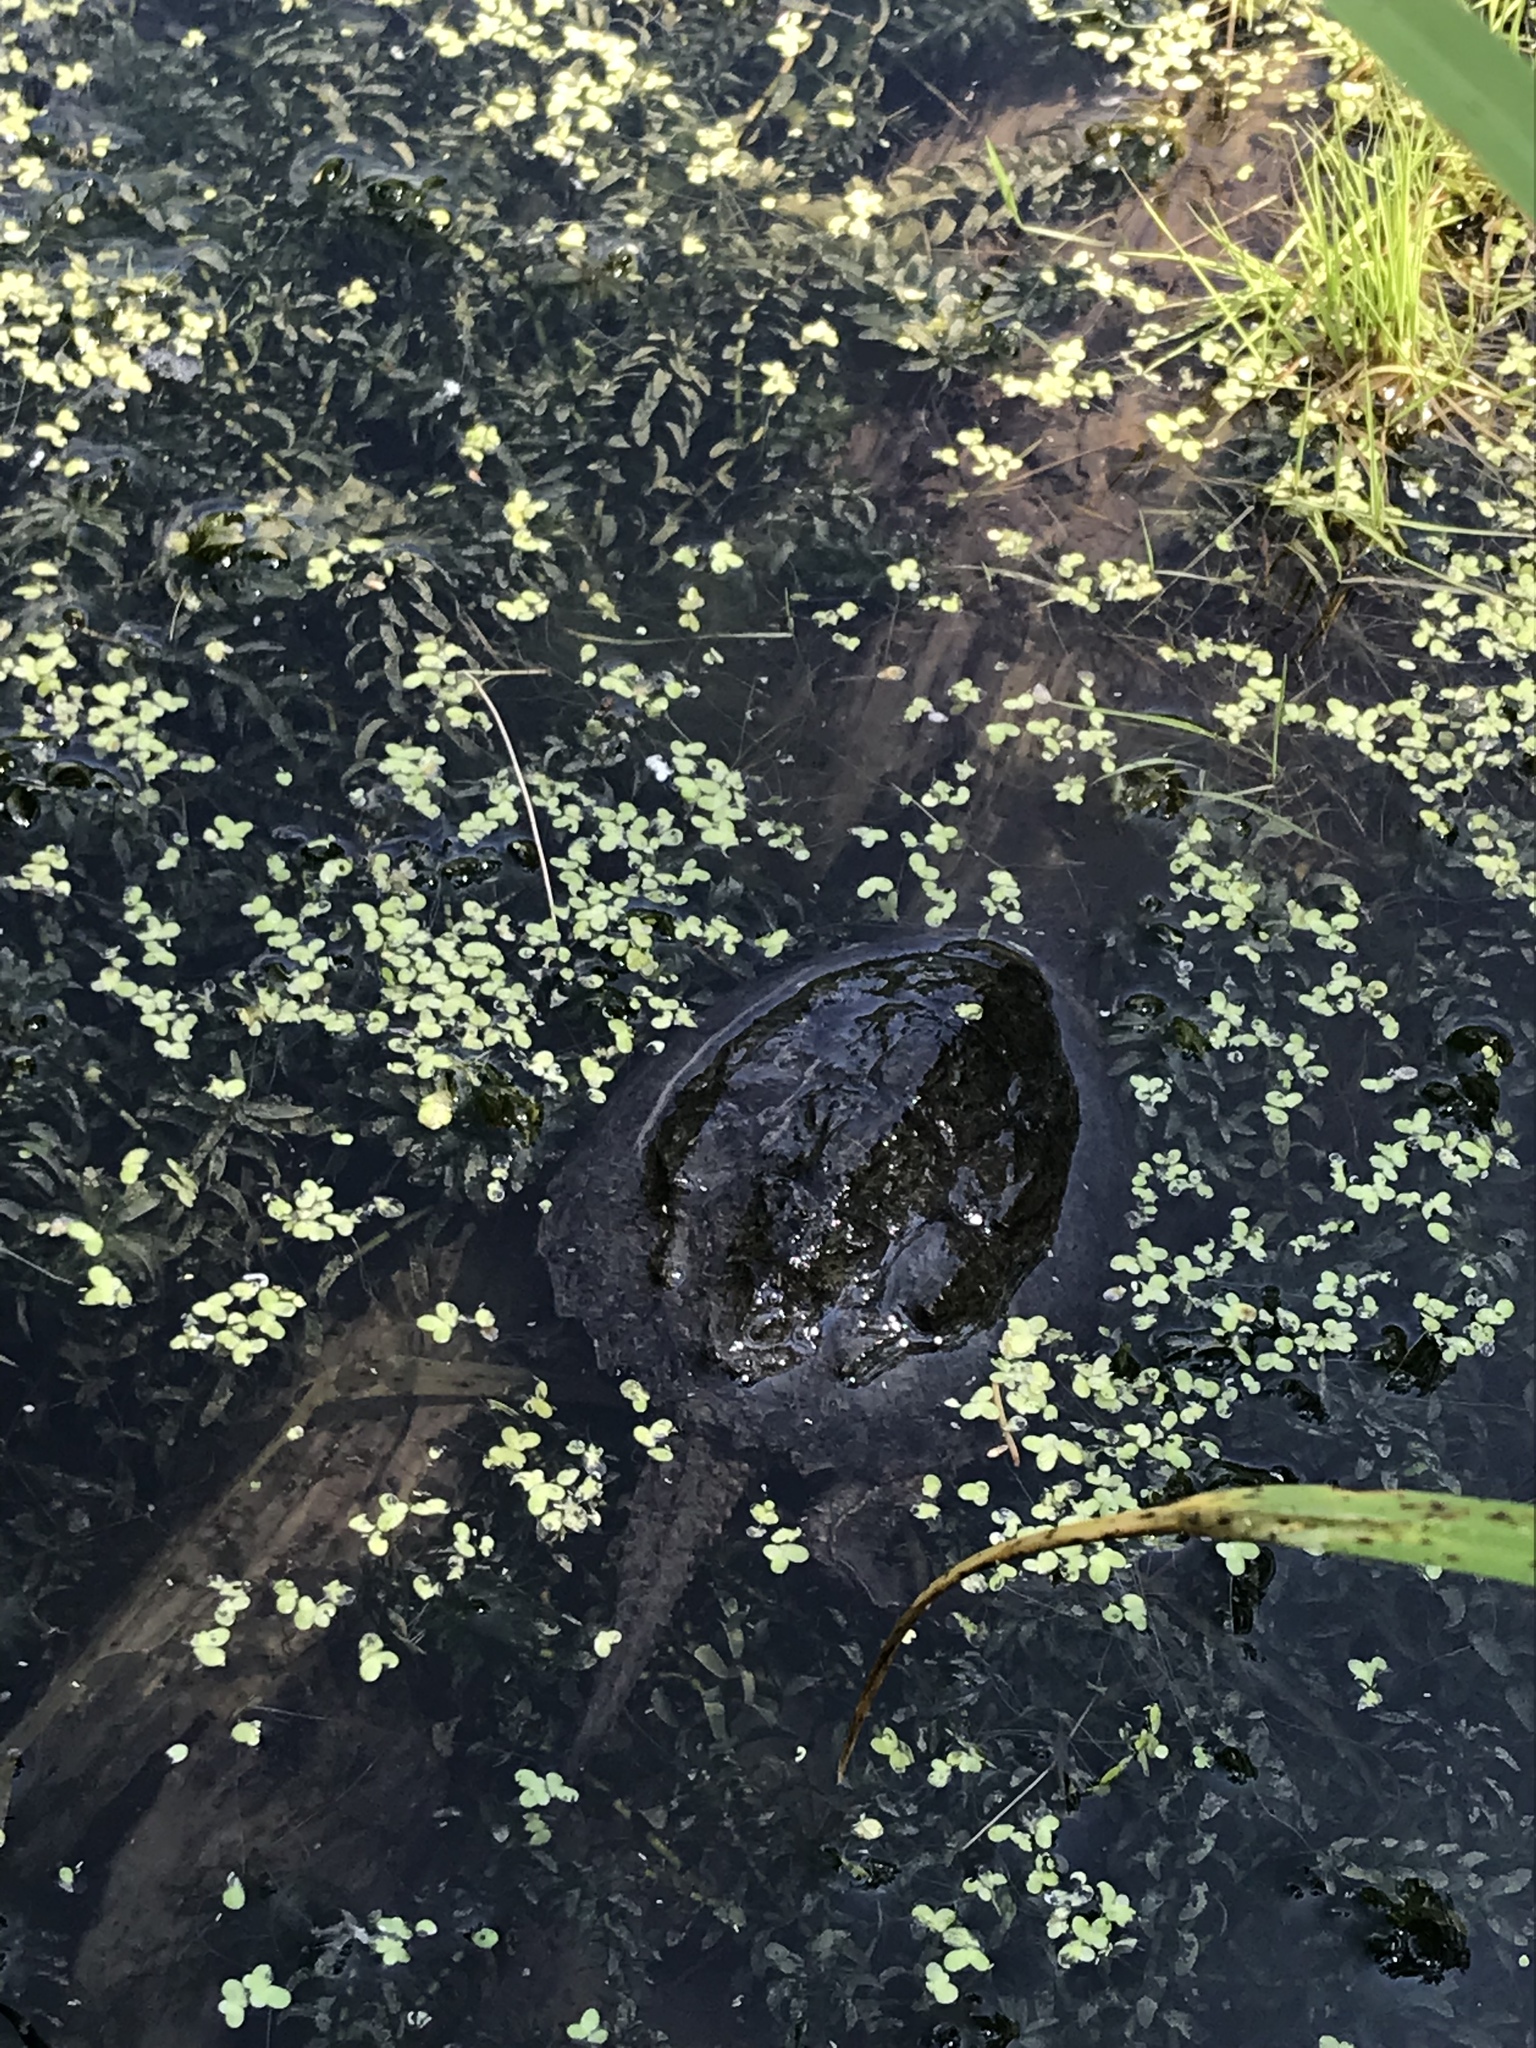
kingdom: Animalia
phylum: Chordata
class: Testudines
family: Chelydridae
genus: Chelydra
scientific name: Chelydra serpentina
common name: Common snapping turtle
